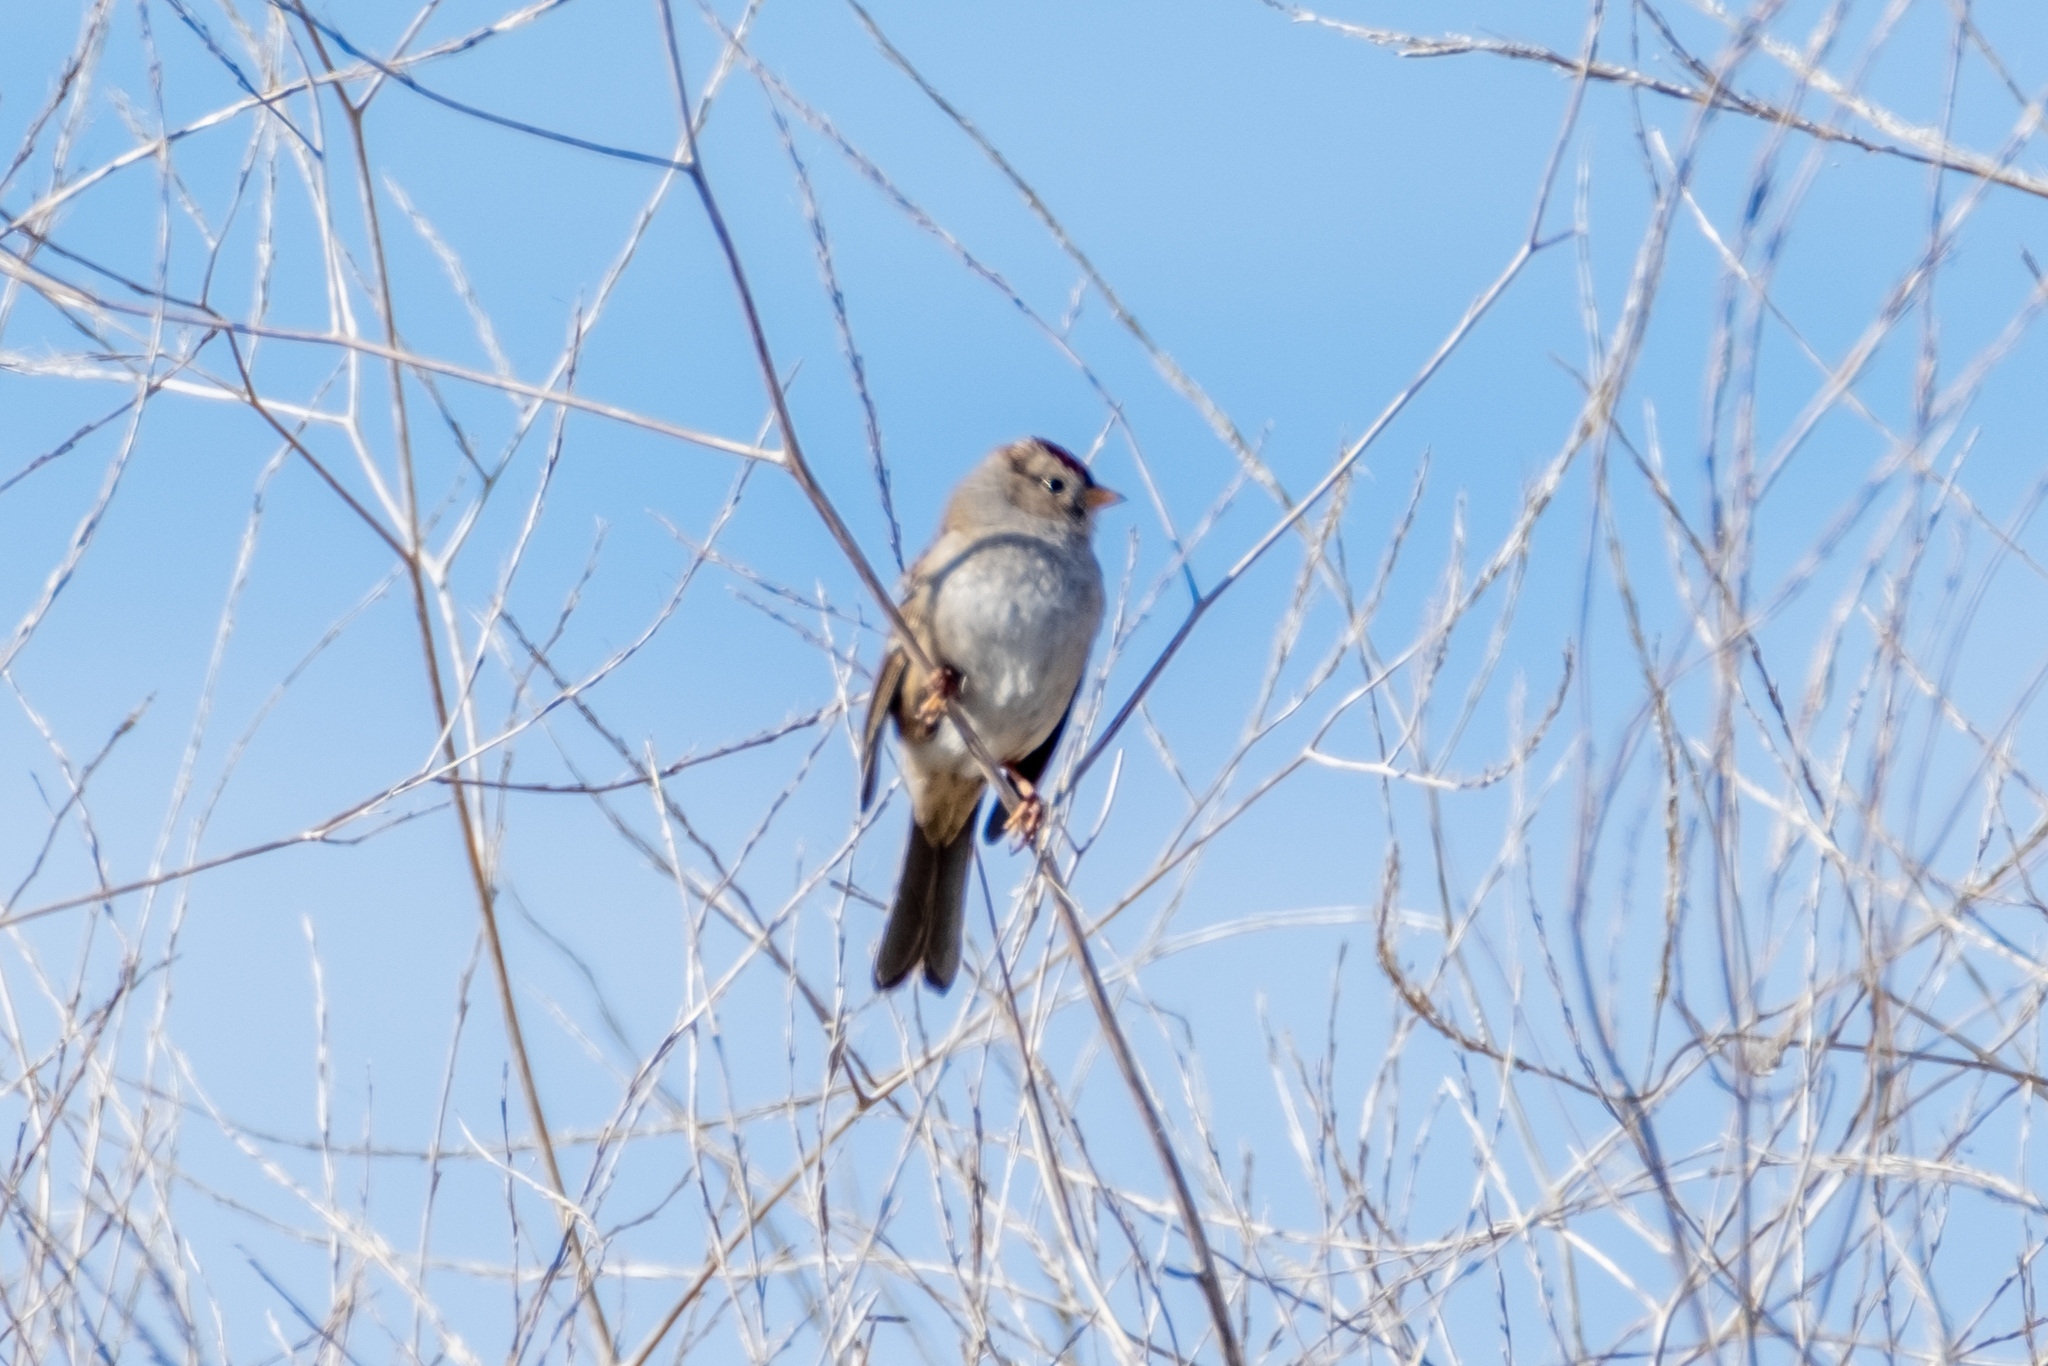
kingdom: Animalia
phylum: Chordata
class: Aves
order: Passeriformes
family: Passerellidae
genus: Zonotrichia
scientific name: Zonotrichia leucophrys
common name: White-crowned sparrow
